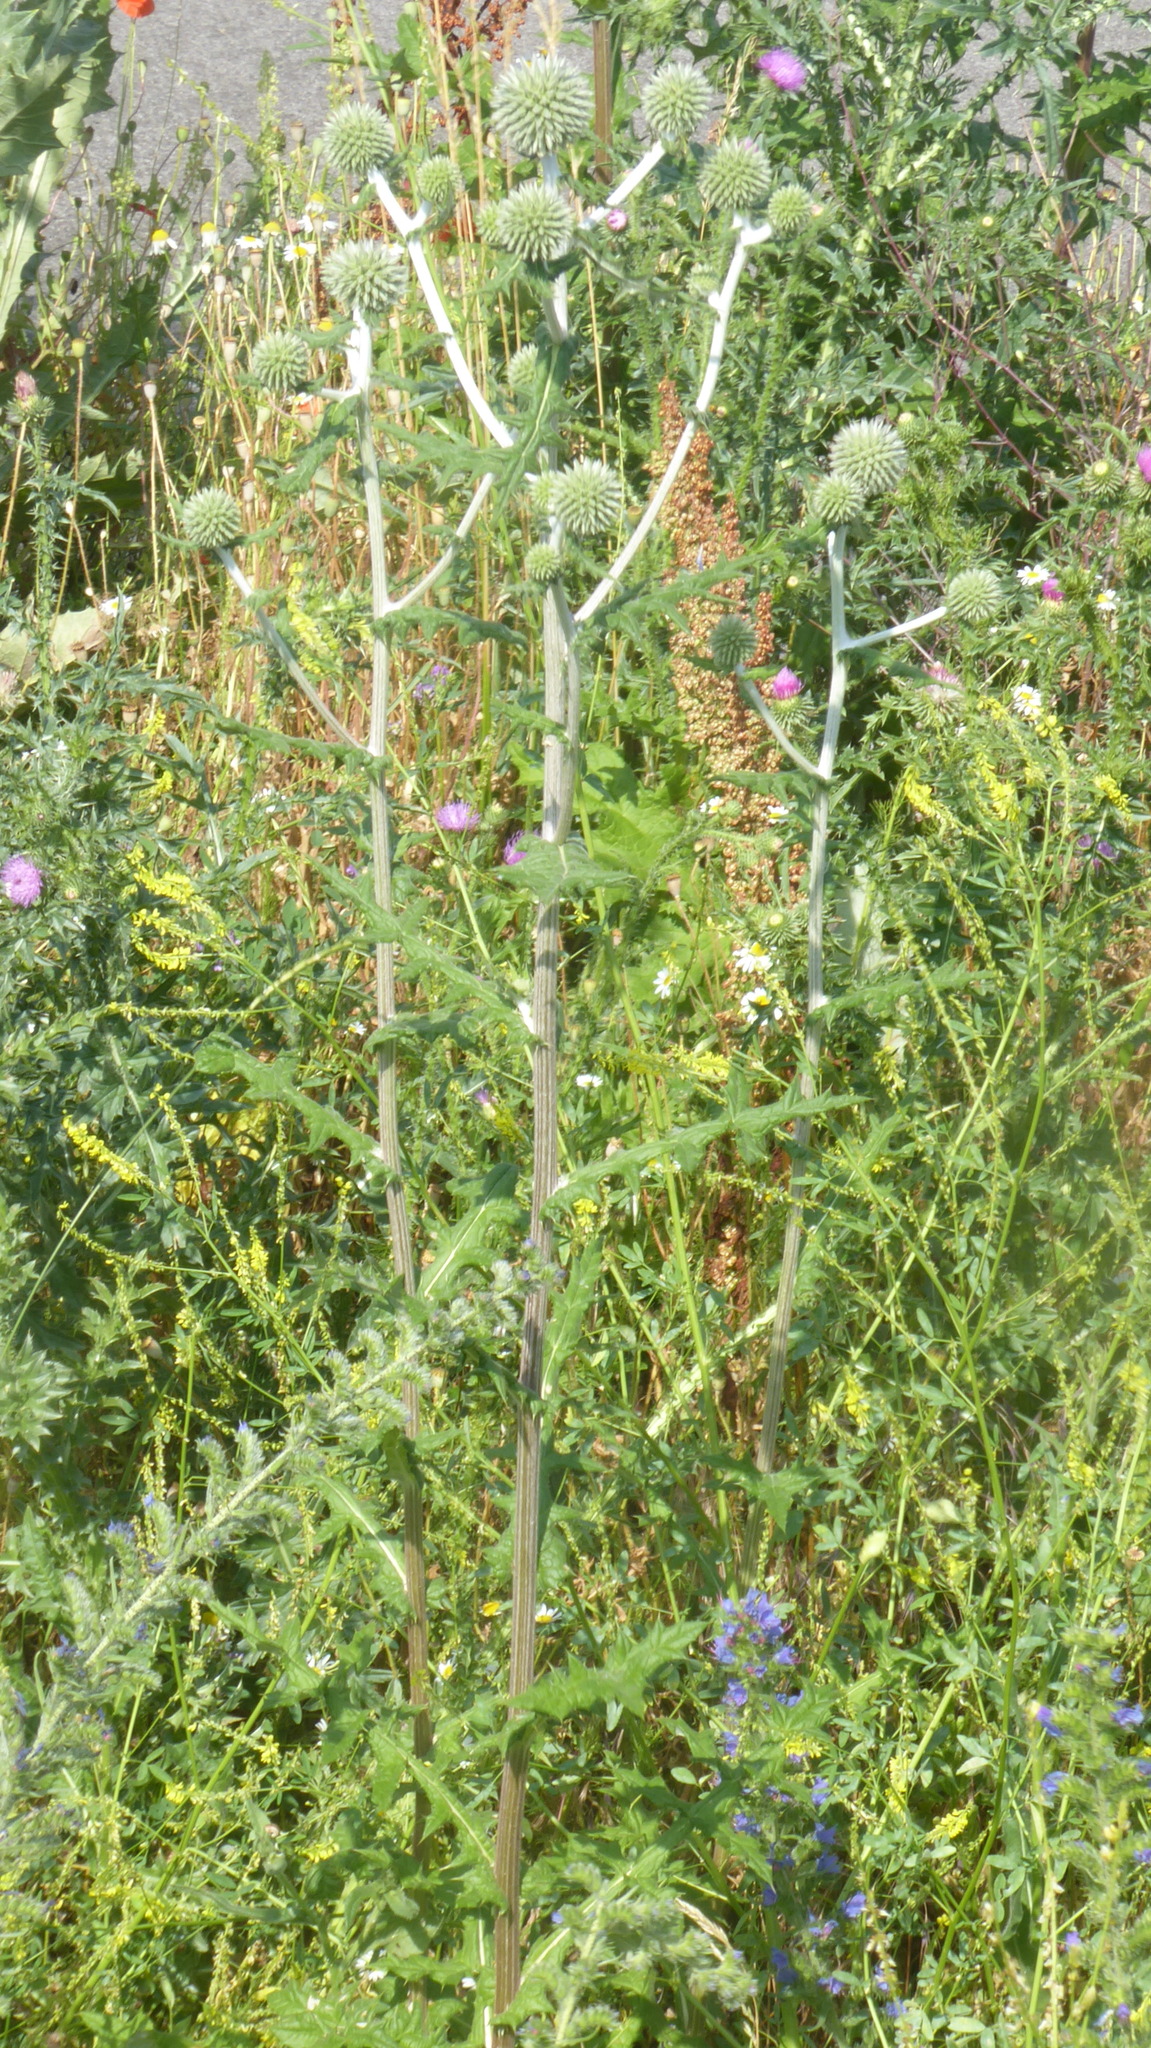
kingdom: Plantae
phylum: Tracheophyta
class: Magnoliopsida
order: Asterales
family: Asteraceae
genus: Echinops
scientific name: Echinops sphaerocephalus
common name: Glandular globe-thistle
